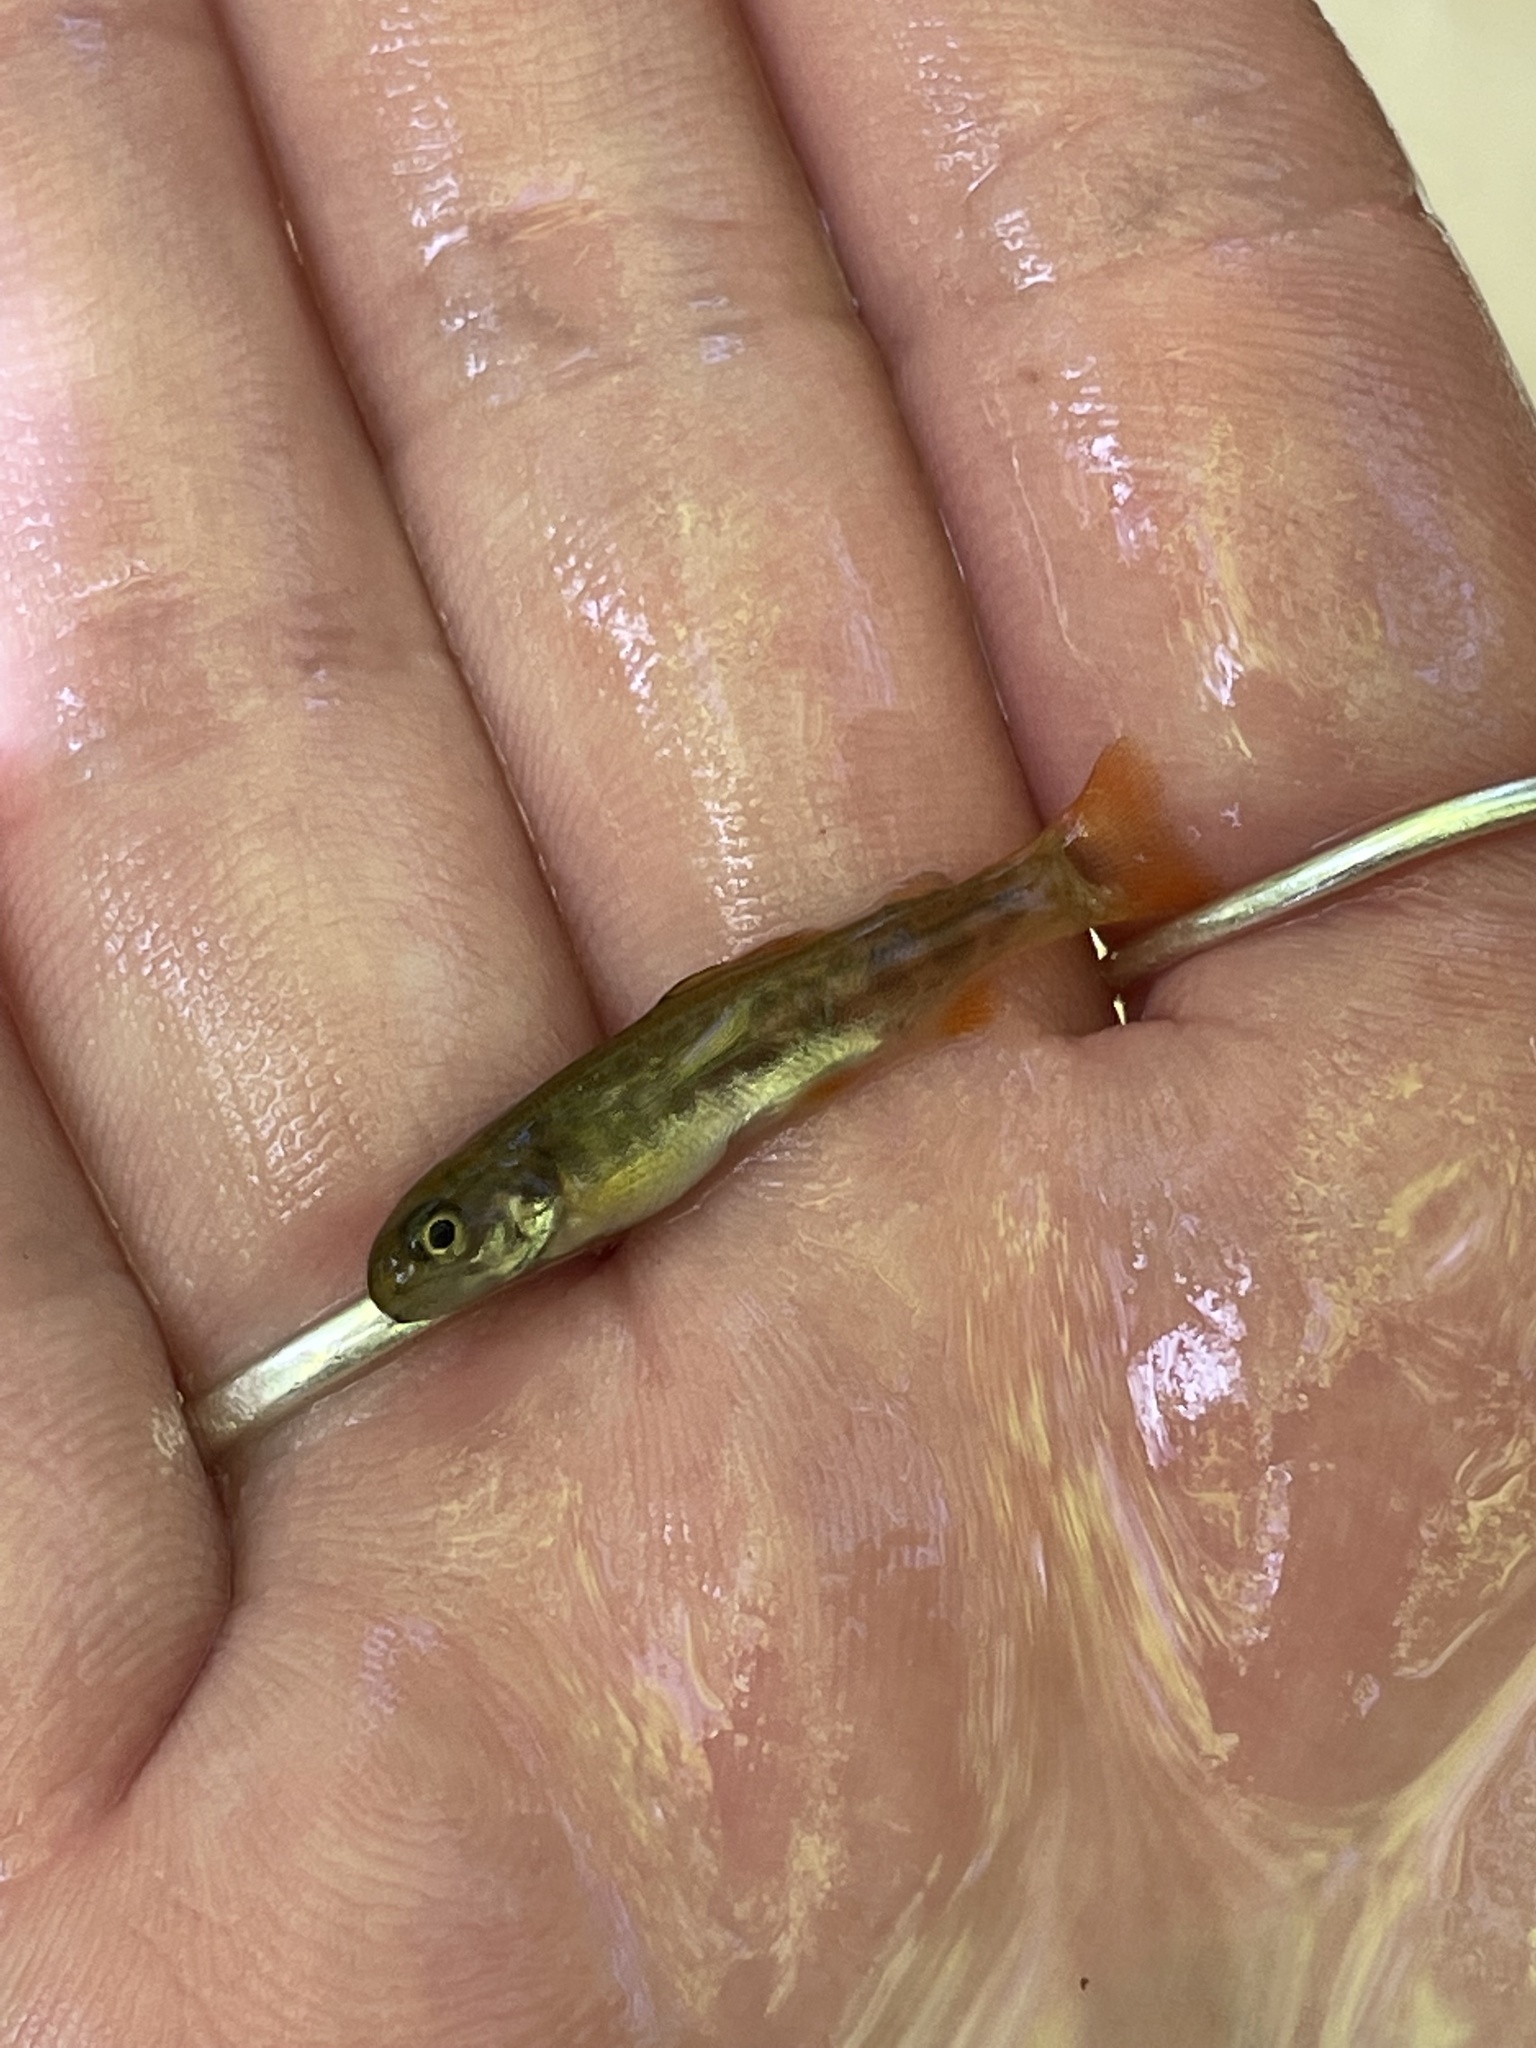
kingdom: Animalia
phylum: Chordata
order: Salmoniformes
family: Salmonidae
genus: Salvelinus
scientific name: Salvelinus fontinalis
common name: Brook trout
